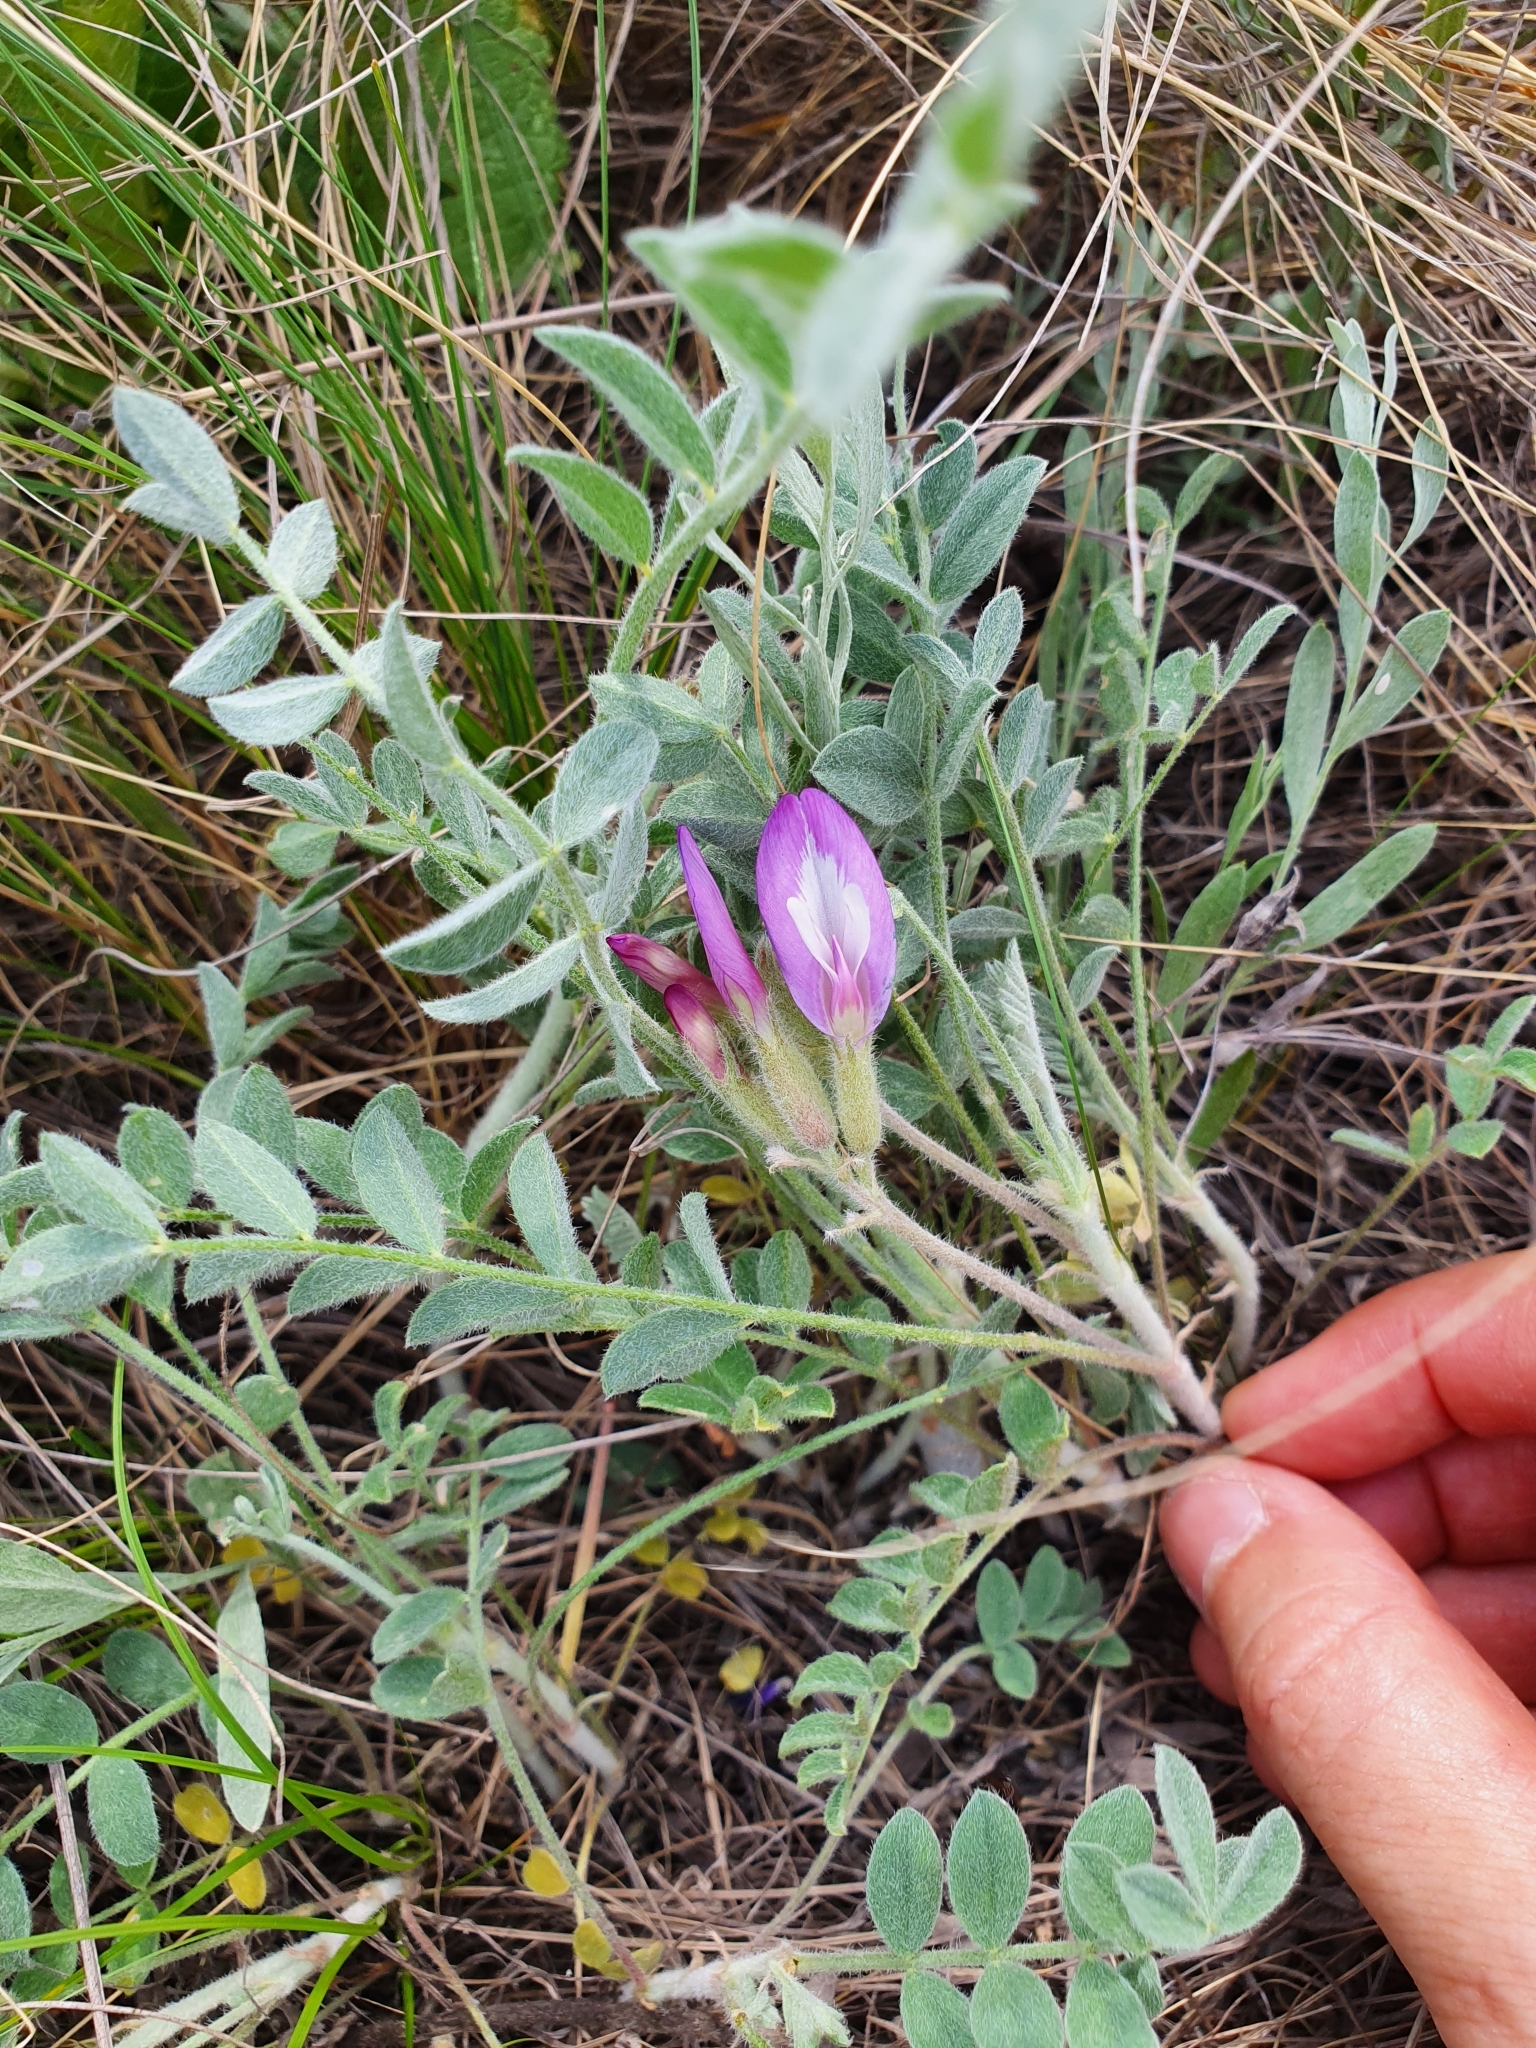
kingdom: Plantae
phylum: Tracheophyta
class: Magnoliopsida
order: Fabales
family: Fabaceae
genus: Astragalus
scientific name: Astragalus testiculatus
